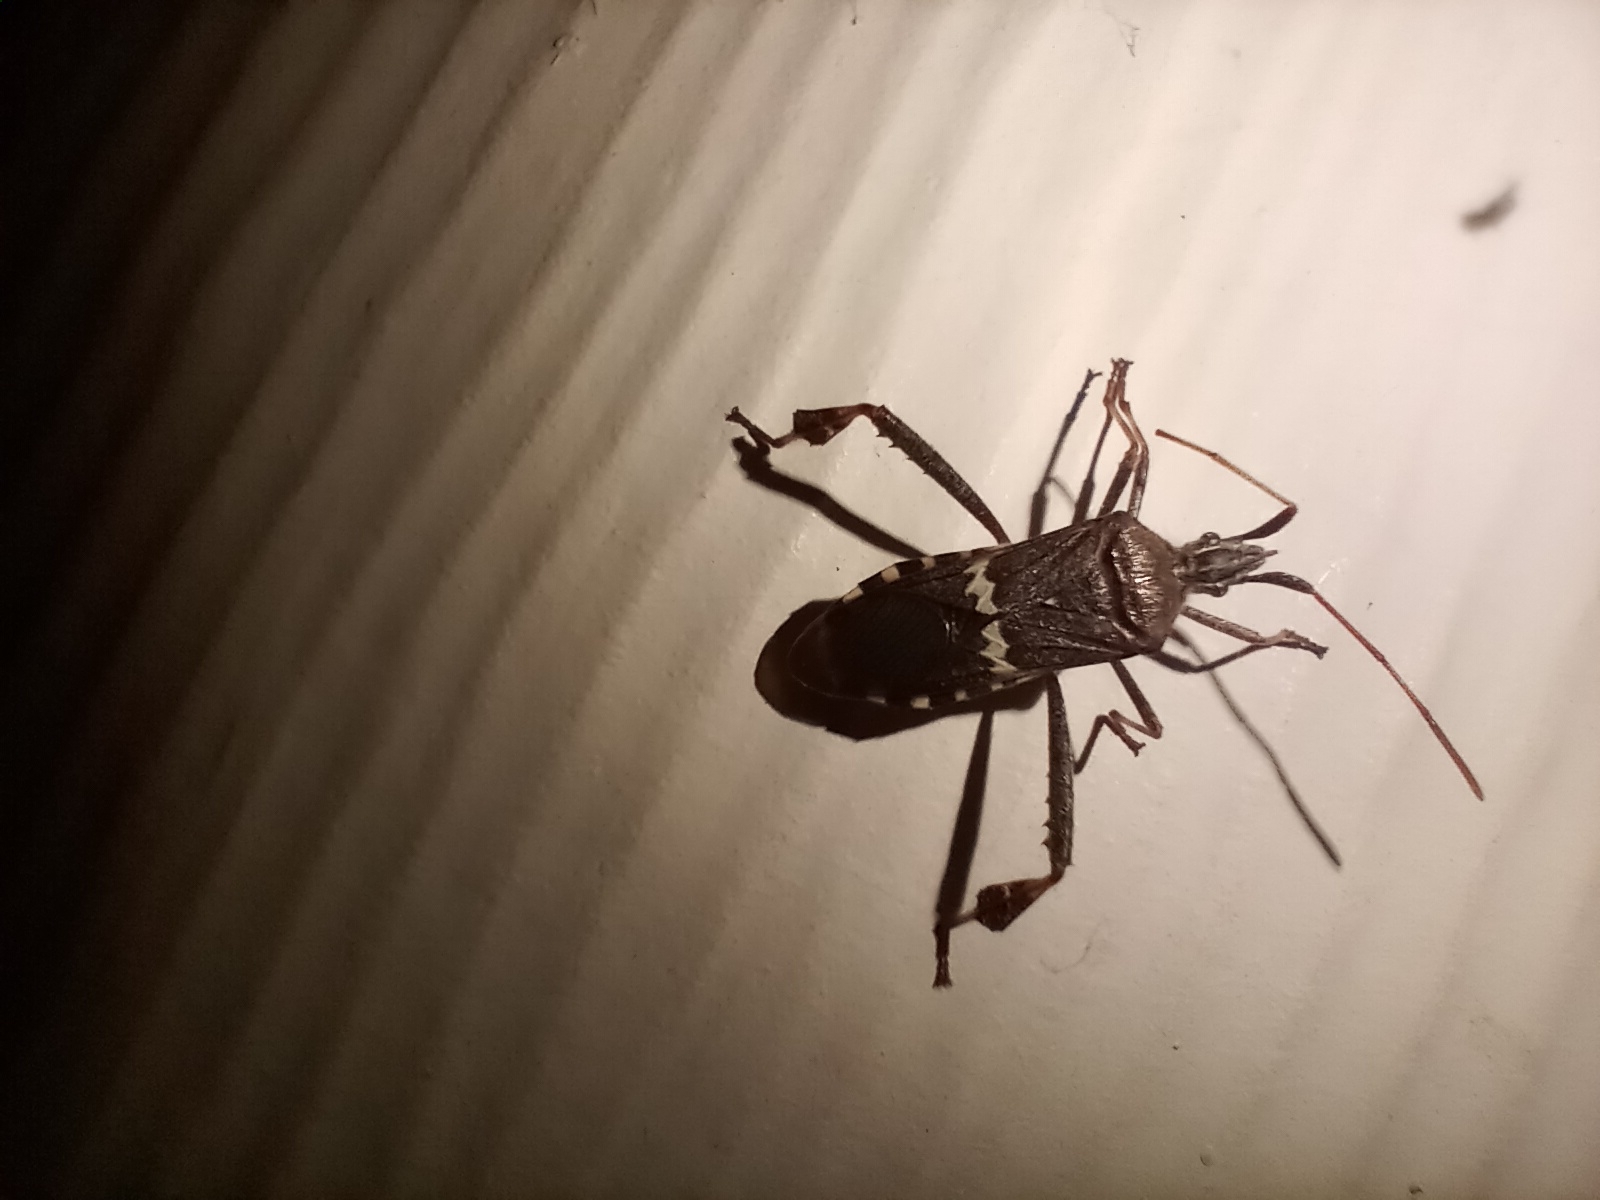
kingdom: Animalia
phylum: Arthropoda
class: Insecta
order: Hemiptera
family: Coreidae
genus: Leptoglossus
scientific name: Leptoglossus clypealis
